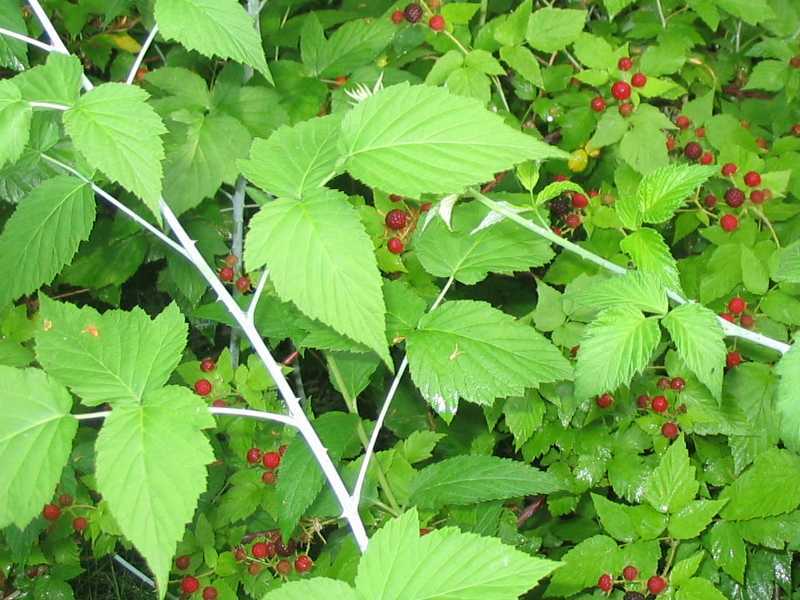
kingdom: Plantae
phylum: Tracheophyta
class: Magnoliopsida
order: Rosales
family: Rosaceae
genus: Rubus
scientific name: Rubus occidentalis
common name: Black raspberry
